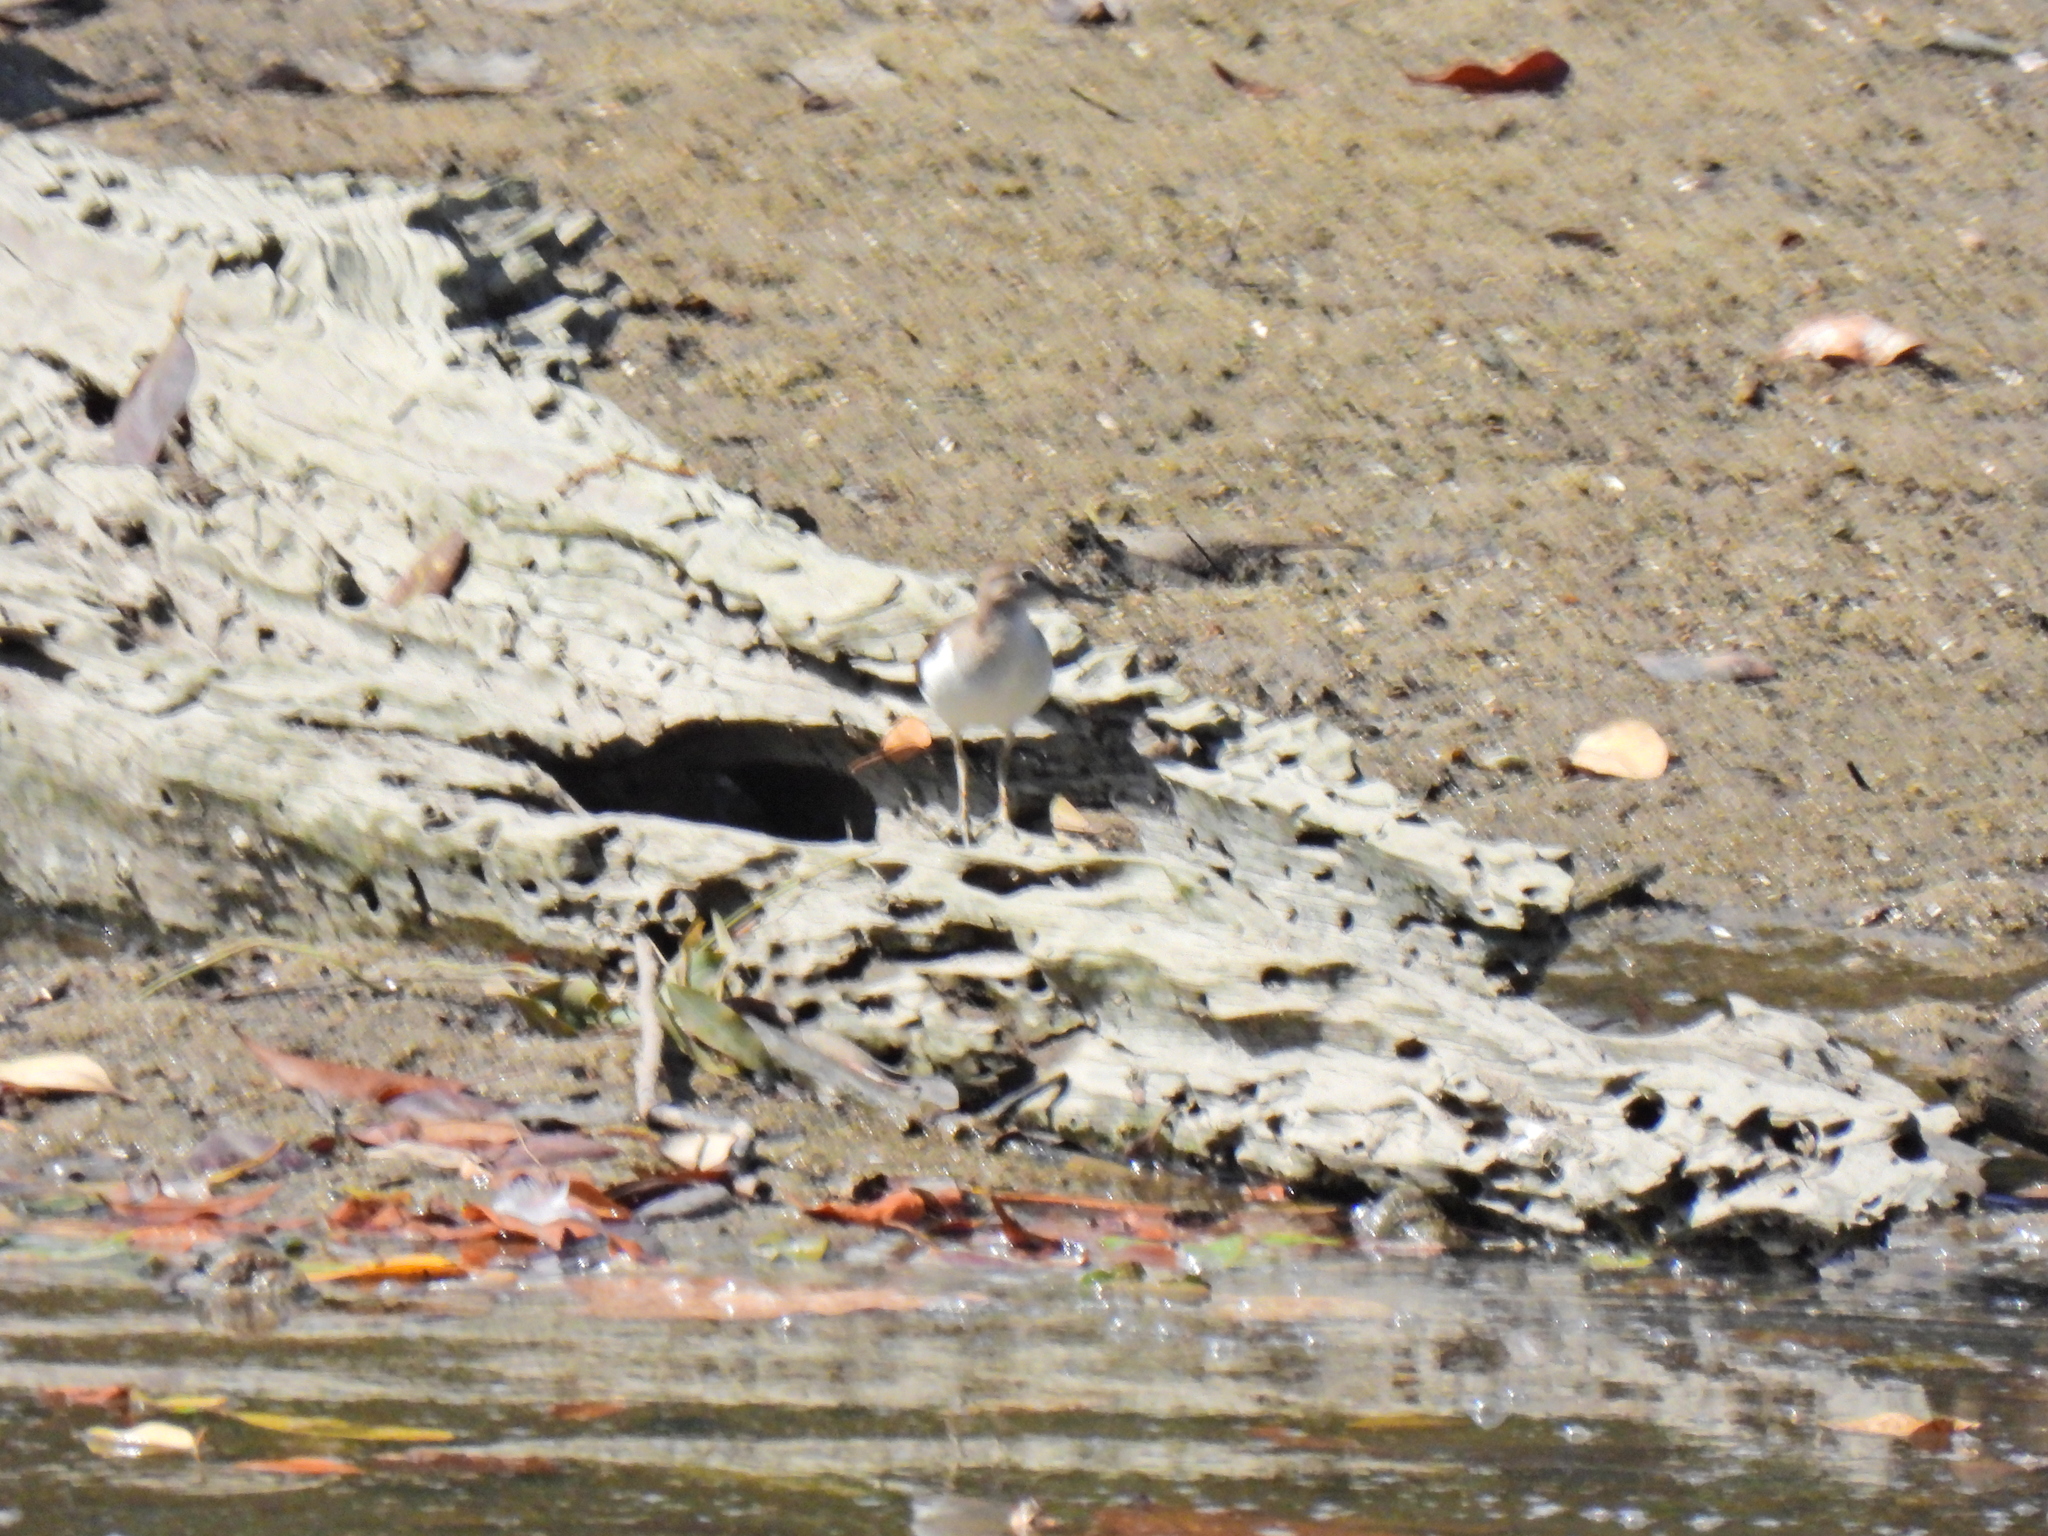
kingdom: Animalia
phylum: Chordata
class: Aves
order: Charadriiformes
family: Scolopacidae
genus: Actitis
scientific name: Actitis hypoleucos
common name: Common sandpiper
